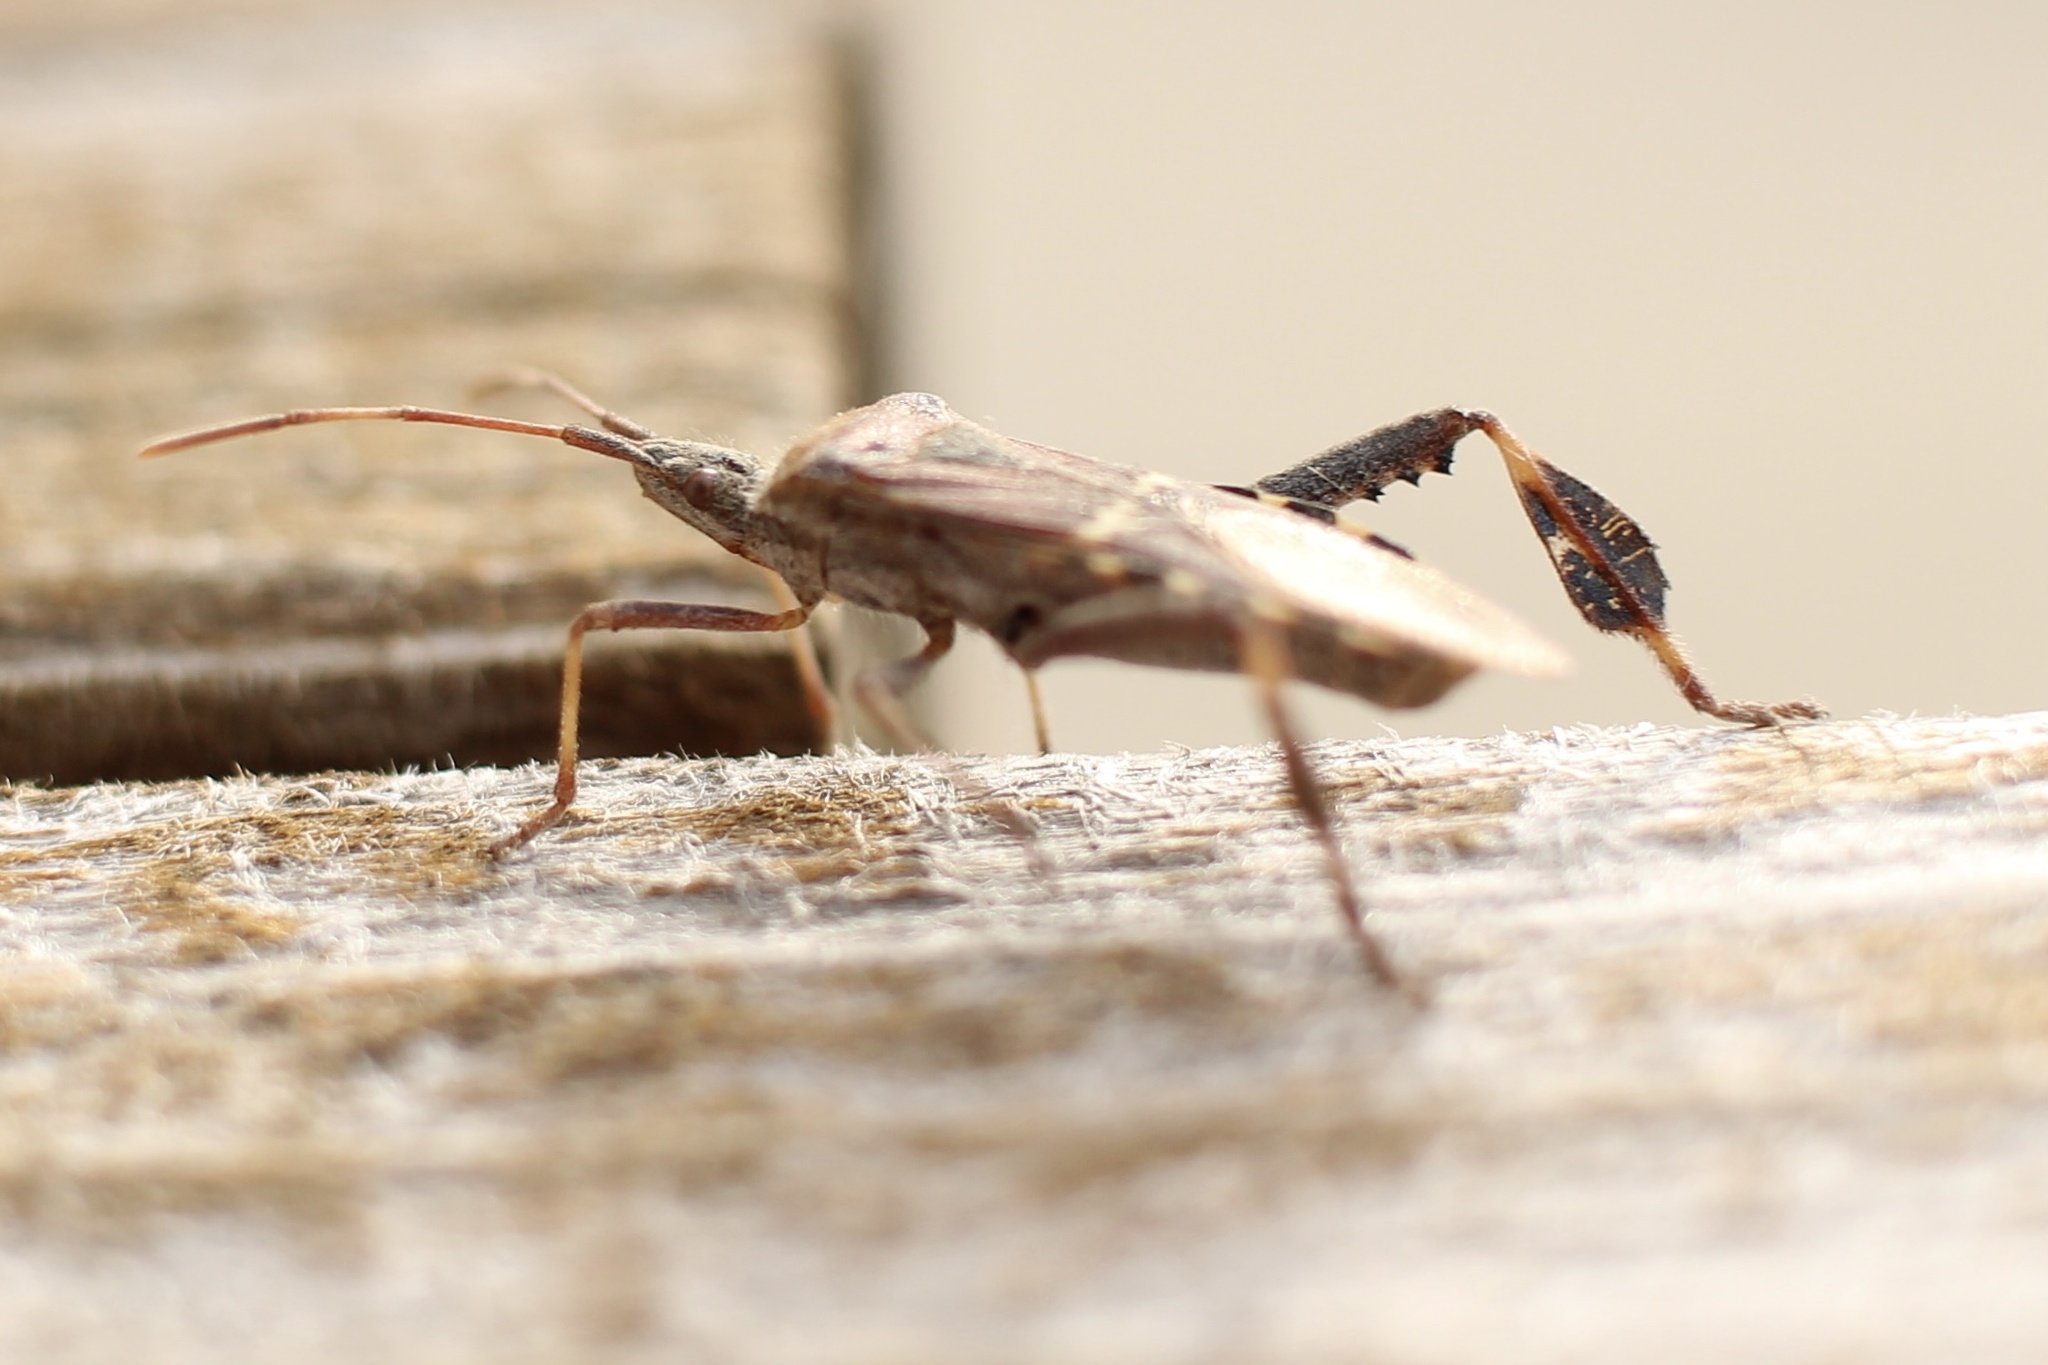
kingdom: Animalia
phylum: Arthropoda
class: Insecta
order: Hemiptera
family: Coreidae
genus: Leptoglossus
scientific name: Leptoglossus clypealis
